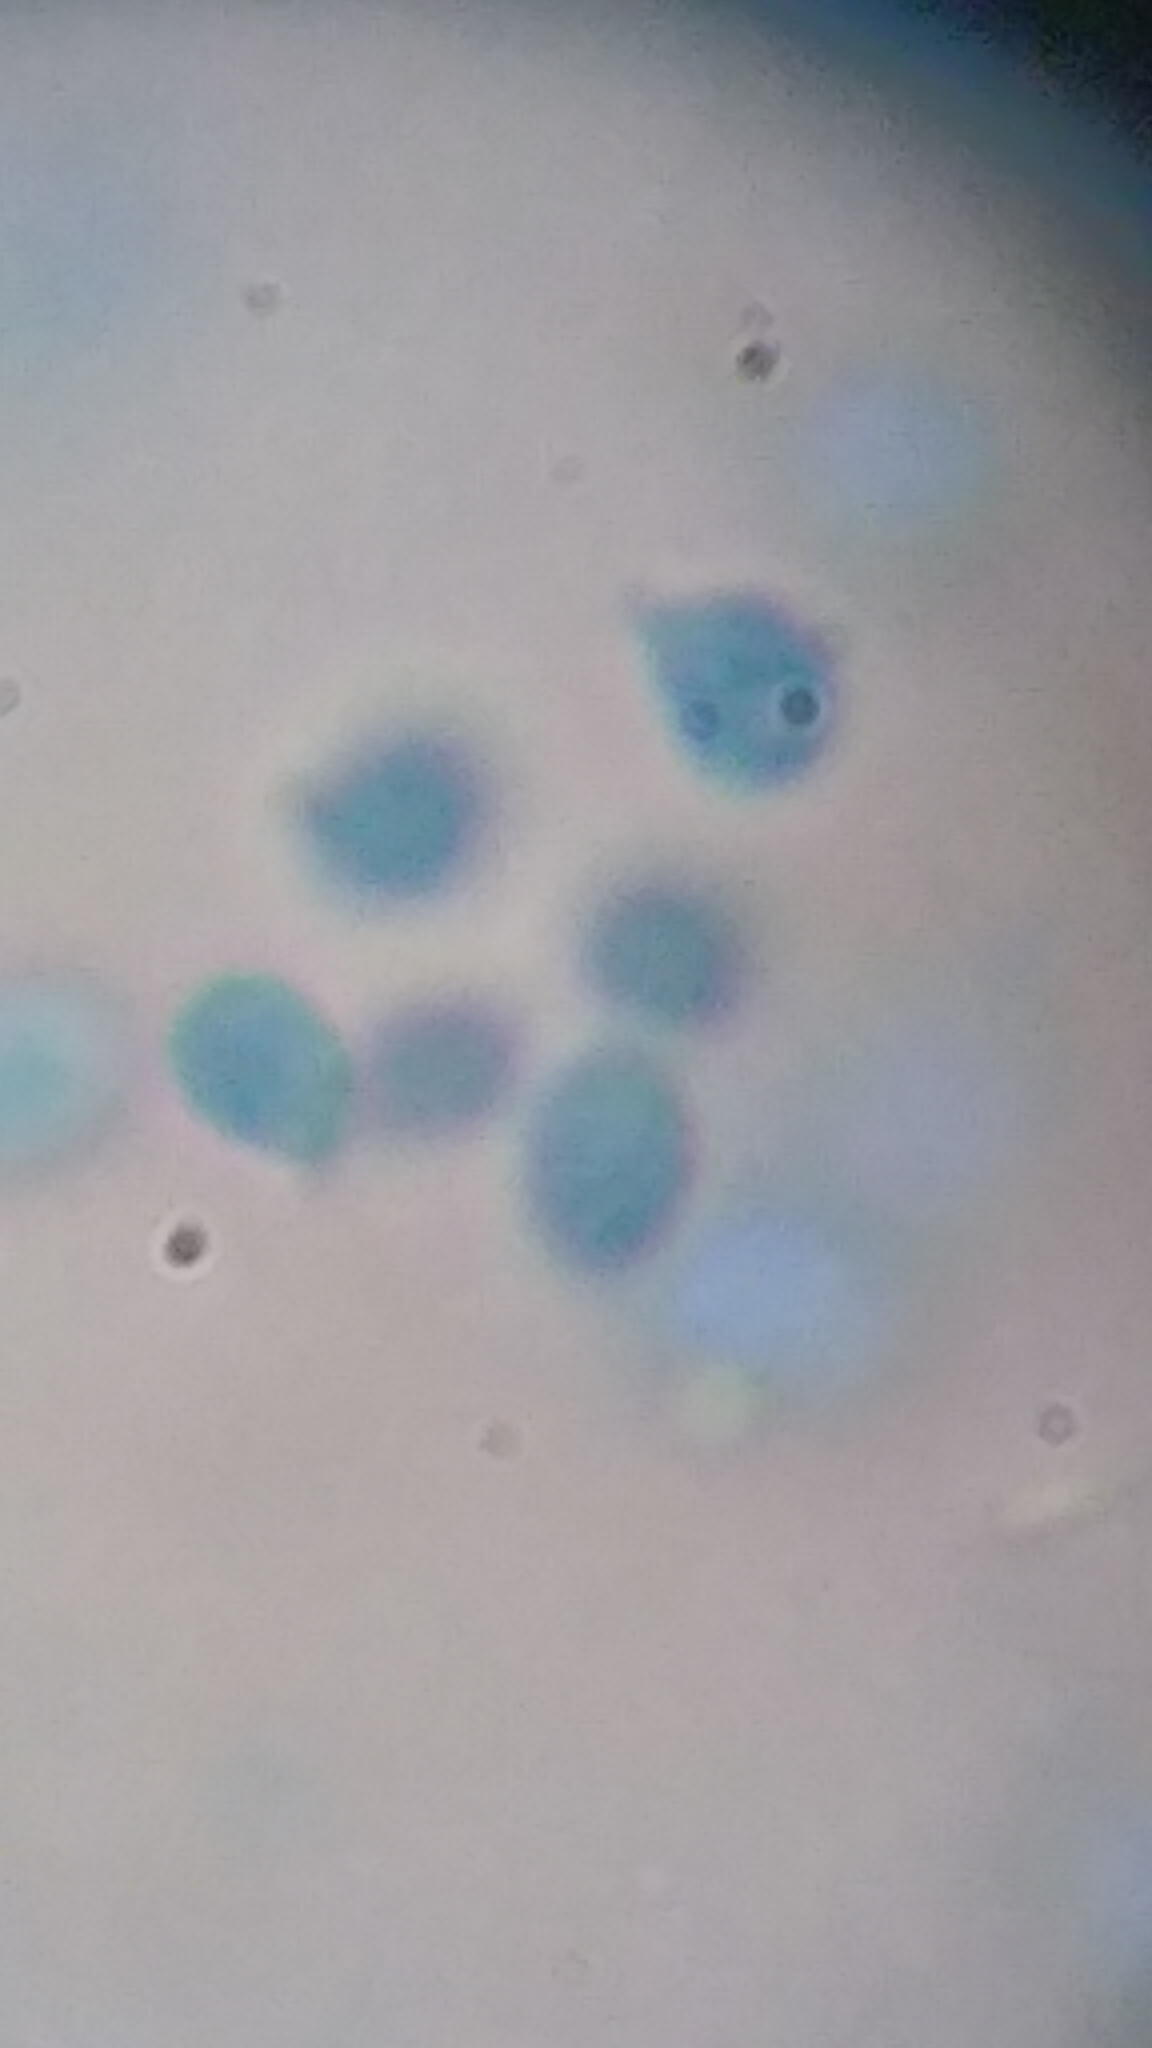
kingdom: Fungi
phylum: Basidiomycota
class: Agaricomycetes
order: Agaricales
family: Tricholomataceae
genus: Clitocybe
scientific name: Clitocybe truncicola
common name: Trunk funnel
